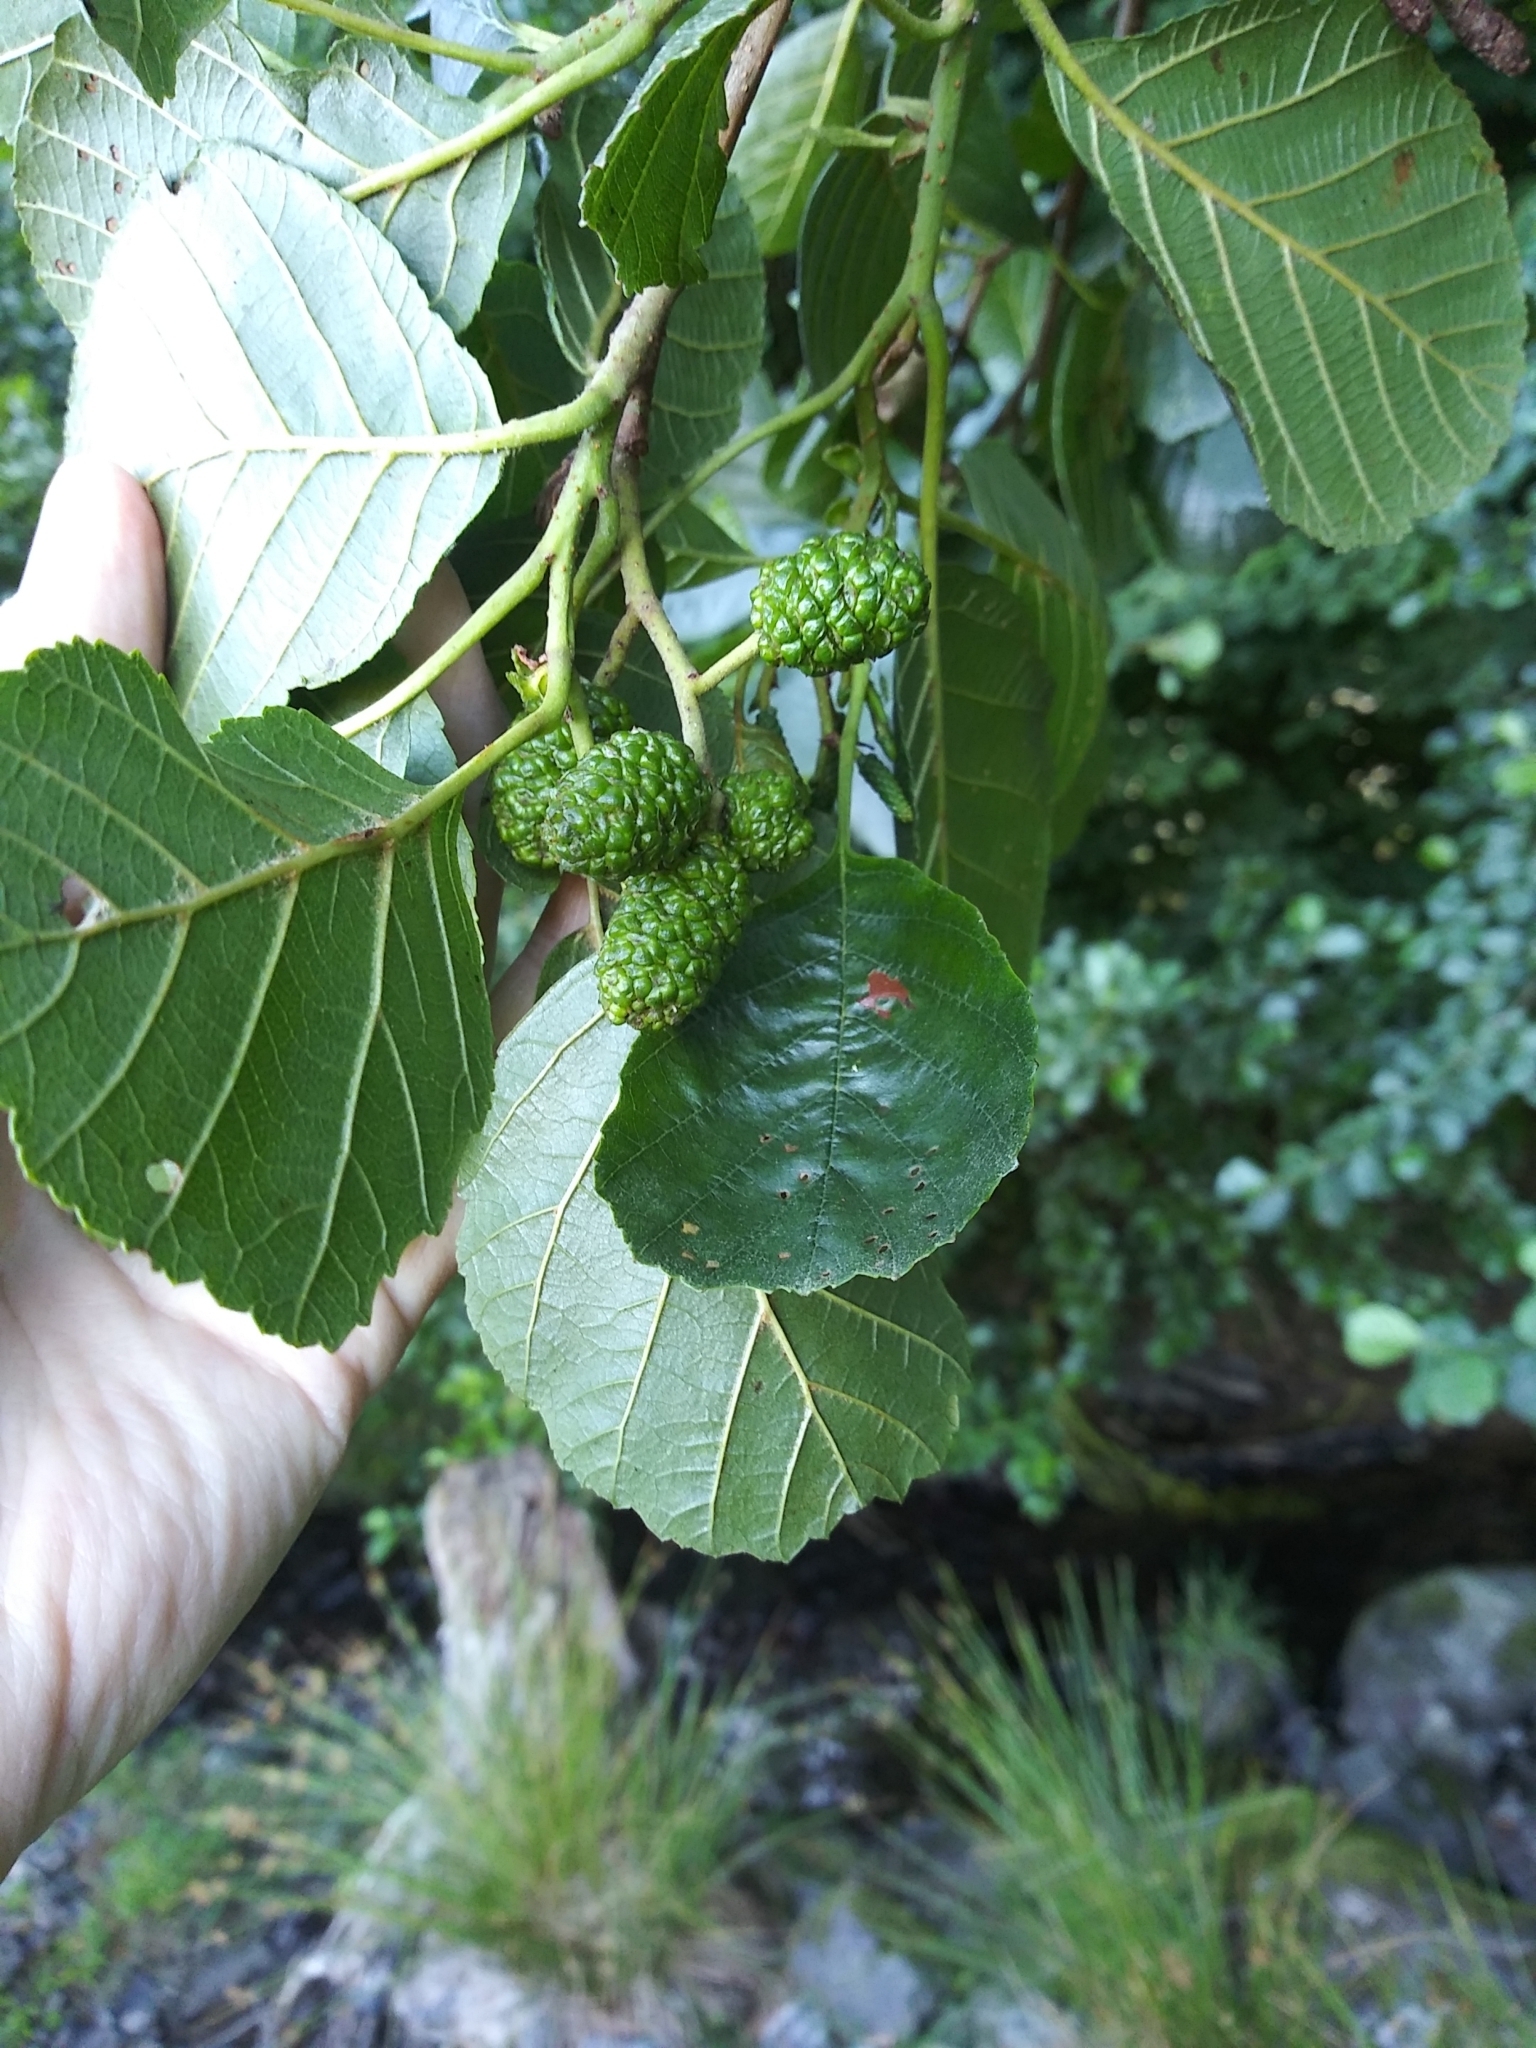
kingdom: Plantae
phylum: Tracheophyta
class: Magnoliopsida
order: Fagales
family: Betulaceae
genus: Alnus
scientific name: Alnus glutinosa
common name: Black alder
